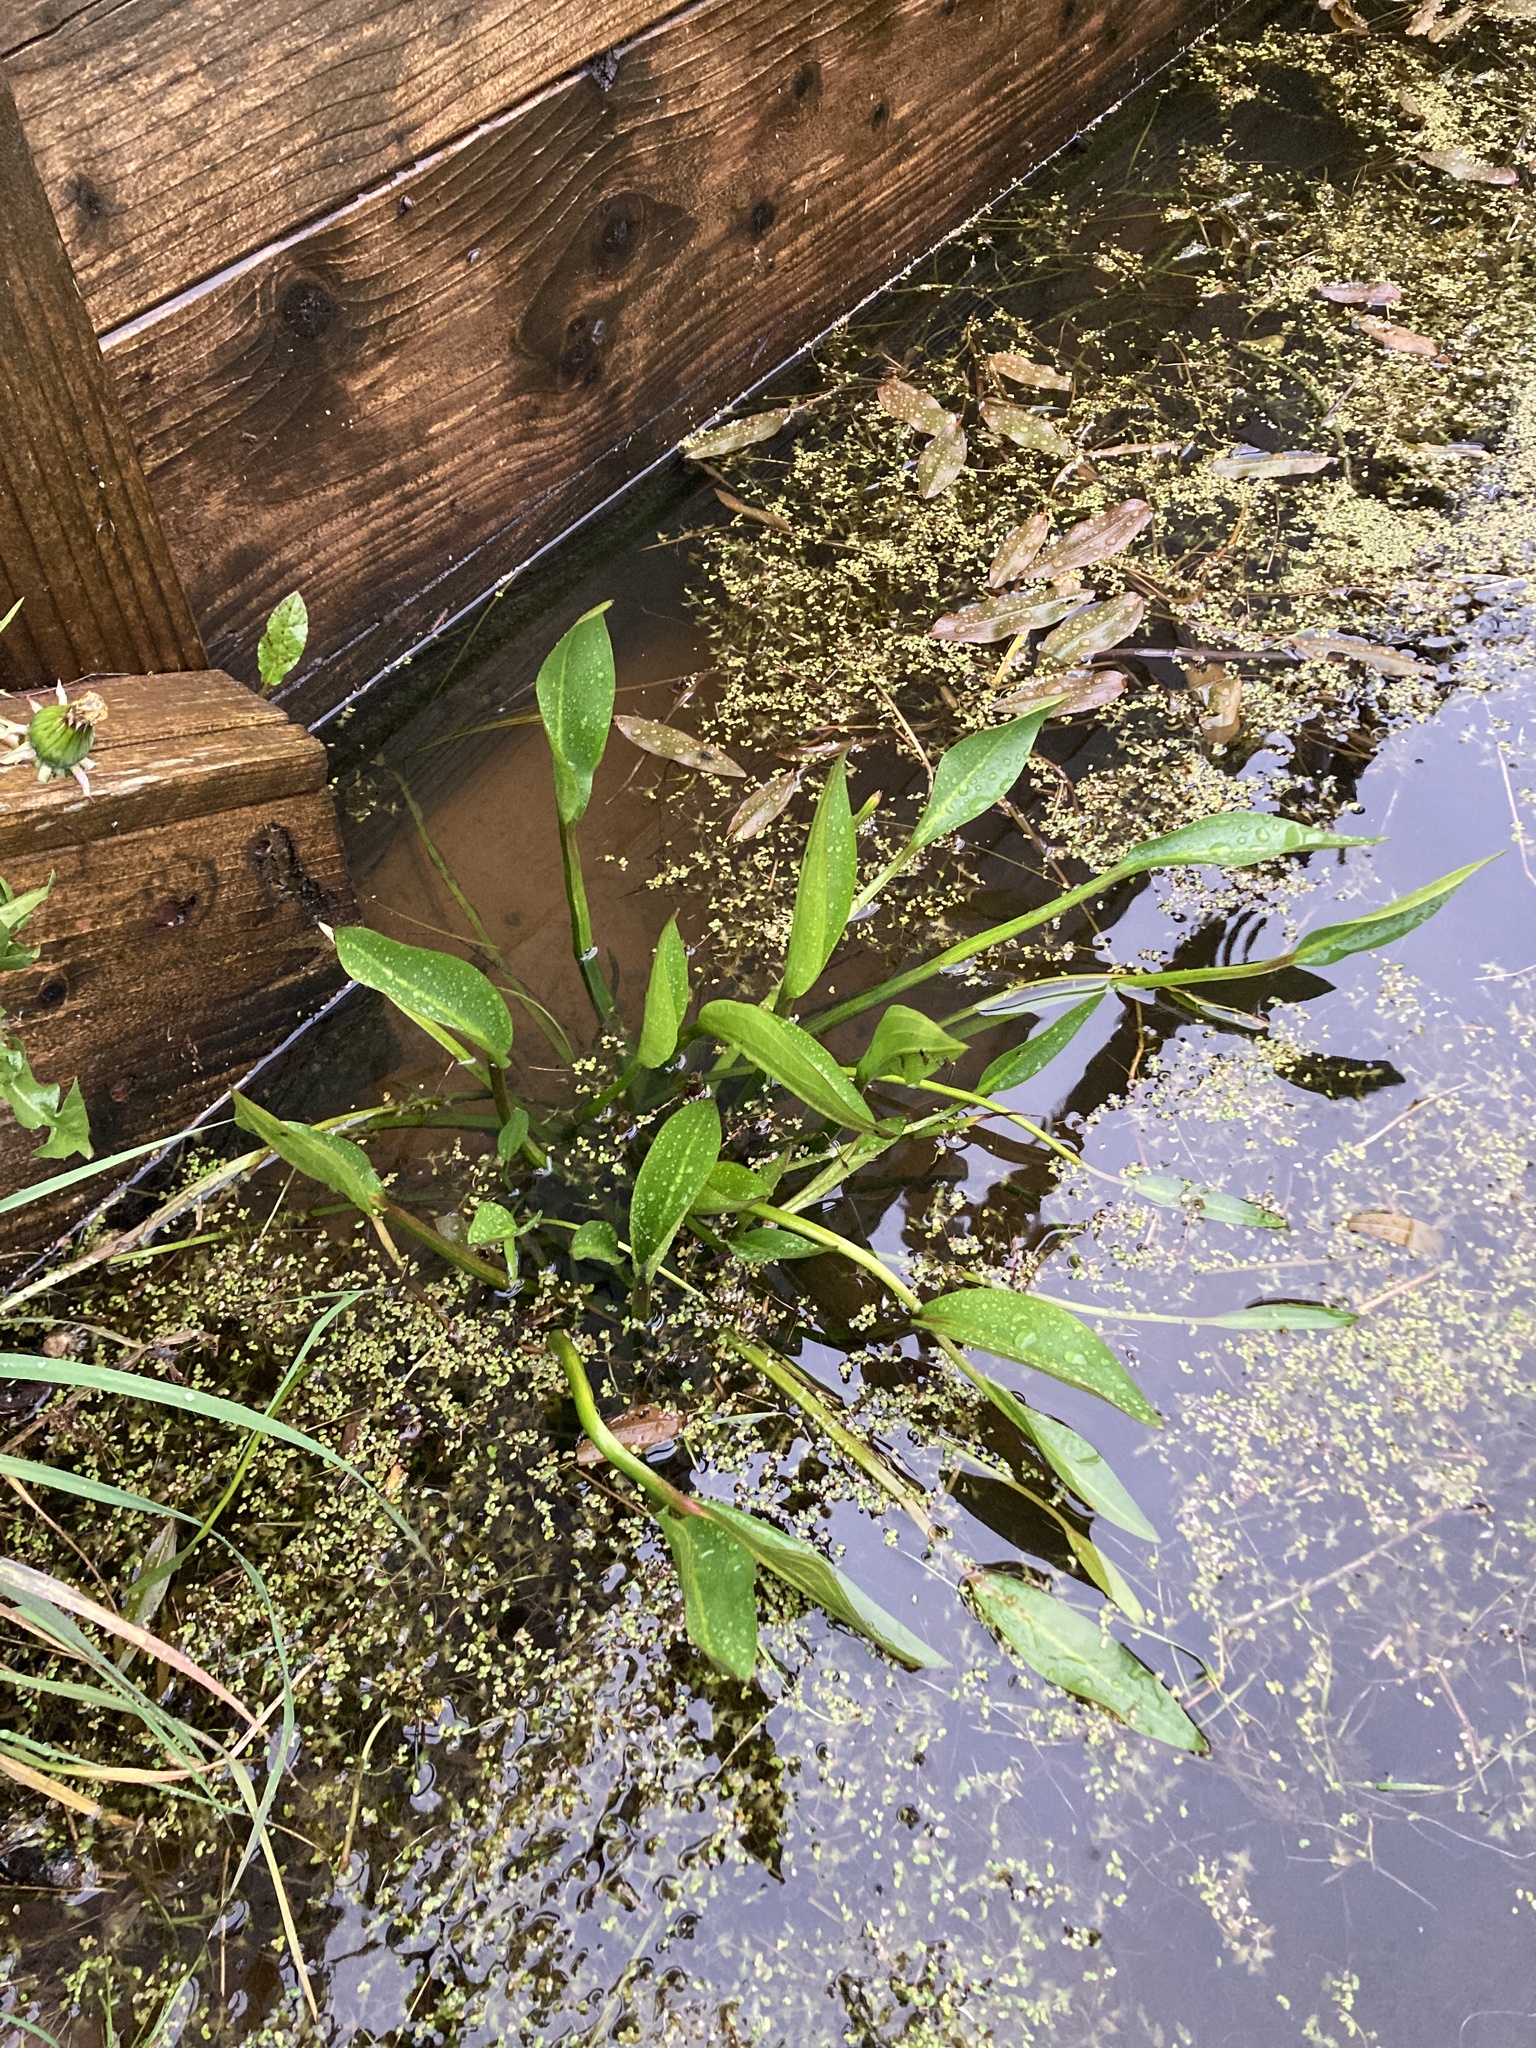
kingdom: Plantae
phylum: Tracheophyta
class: Liliopsida
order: Alismatales
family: Alismataceae
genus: Alisma
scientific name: Alisma plantago-aquatica
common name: Water-plantain
